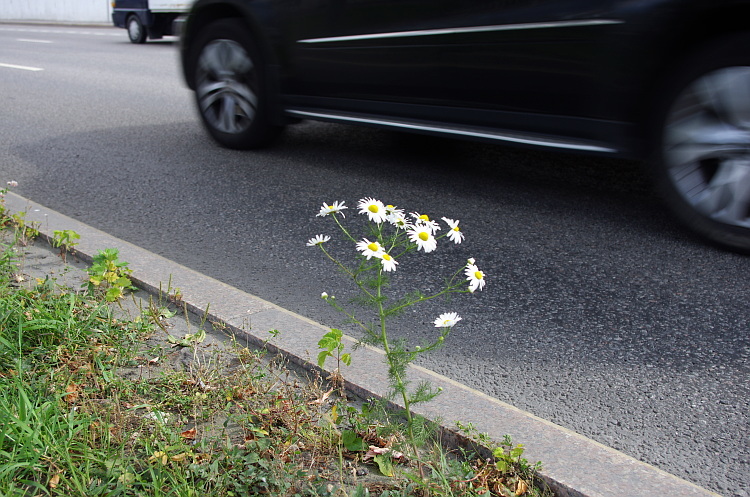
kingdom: Plantae
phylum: Tracheophyta
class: Magnoliopsida
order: Asterales
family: Asteraceae
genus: Tripleurospermum
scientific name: Tripleurospermum inodorum
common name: Scentless mayweed
